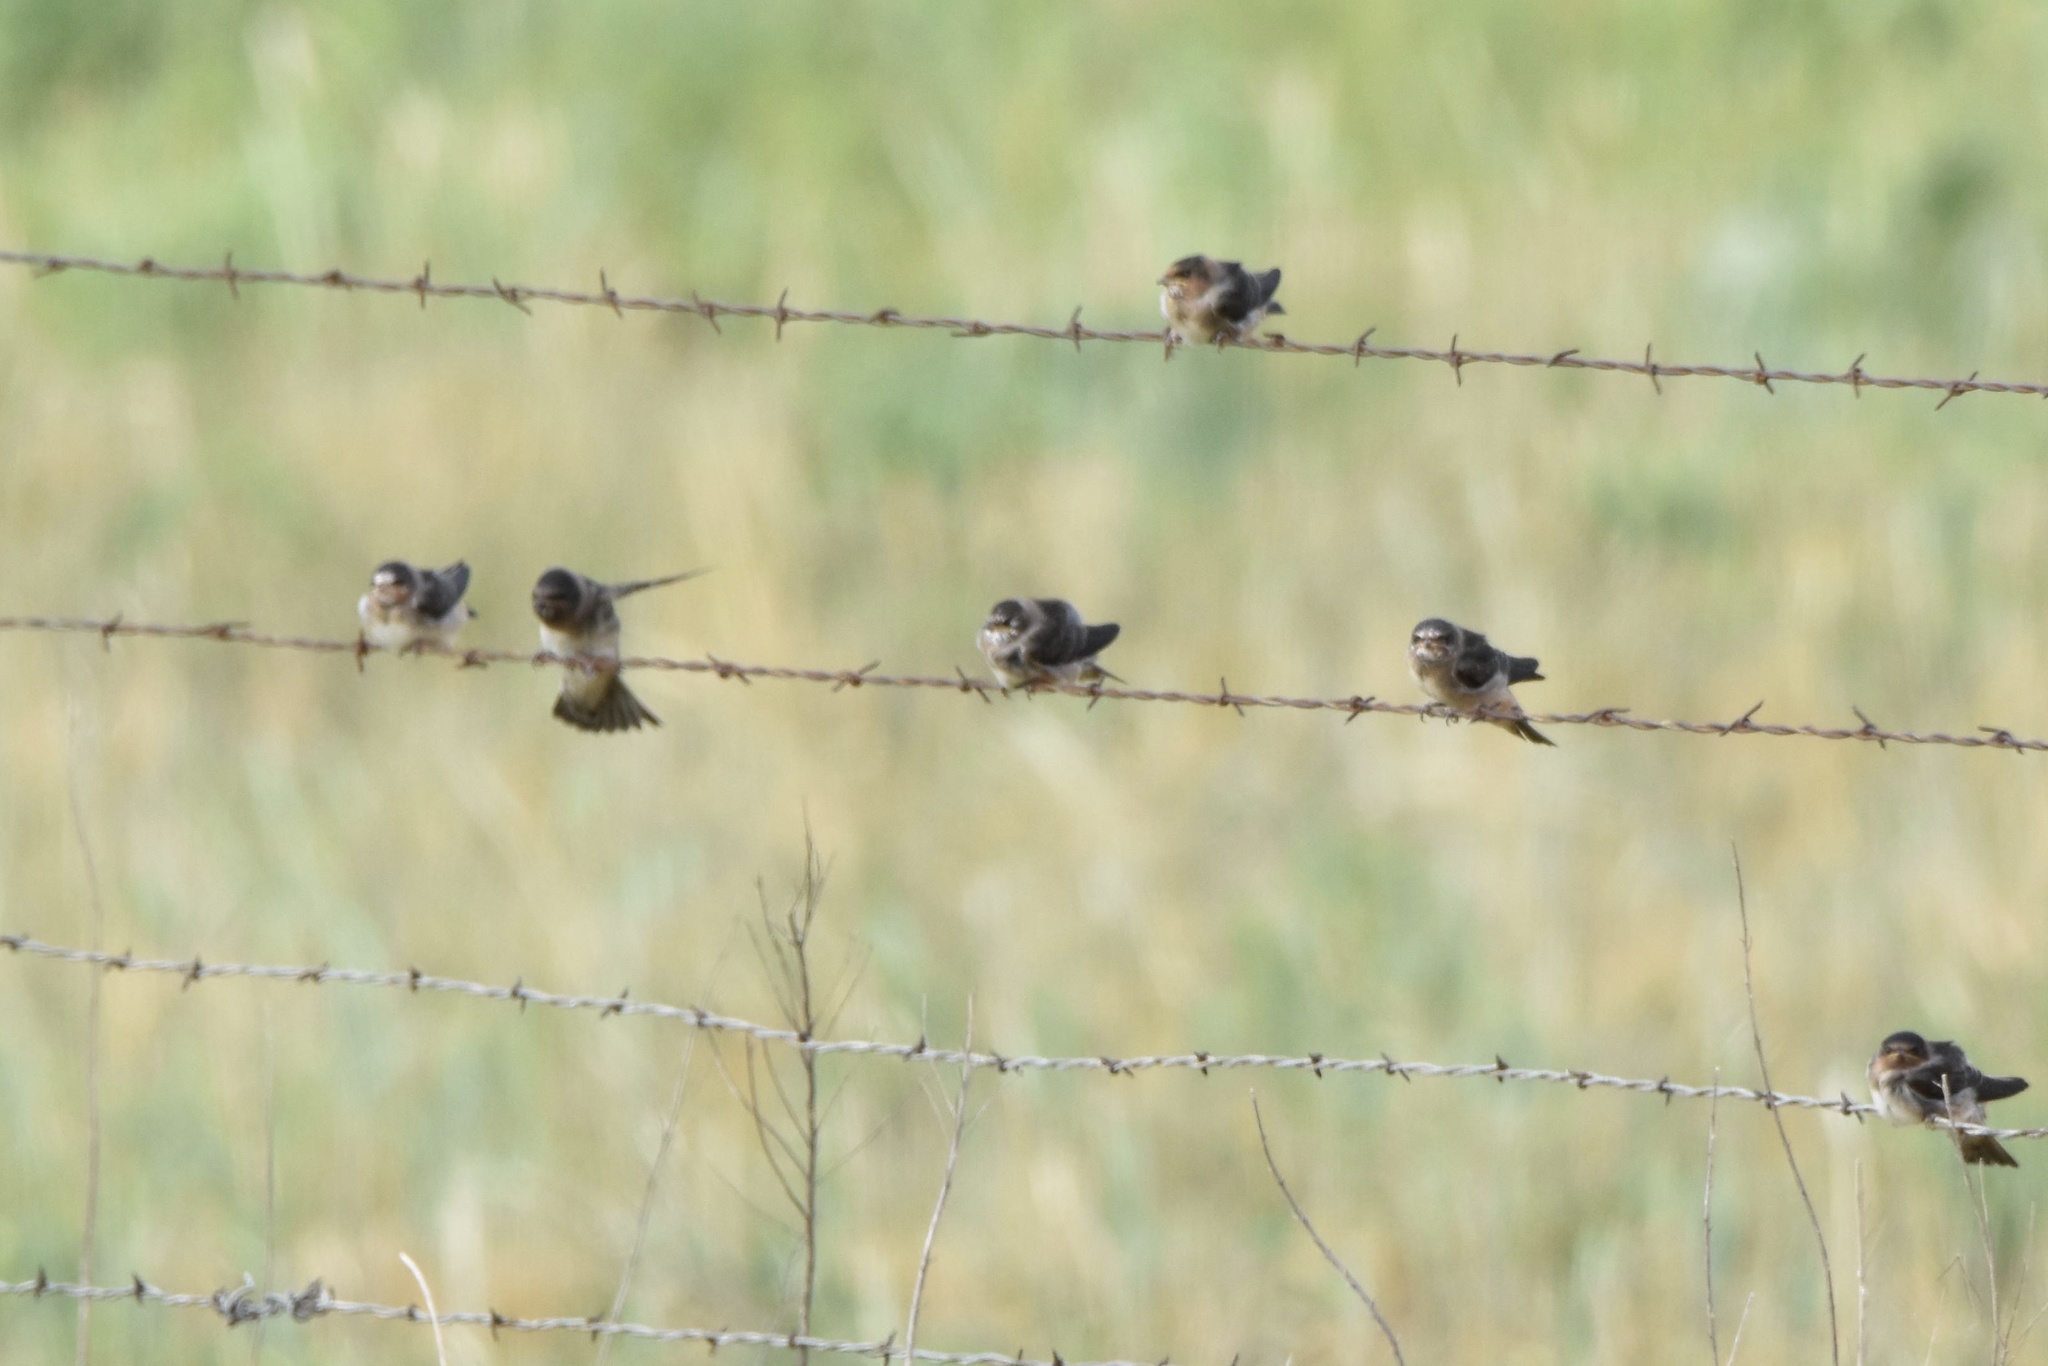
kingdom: Animalia
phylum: Chordata
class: Aves
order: Passeriformes
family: Hirundinidae
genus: Hirundo
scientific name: Hirundo rustica
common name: Barn swallow
